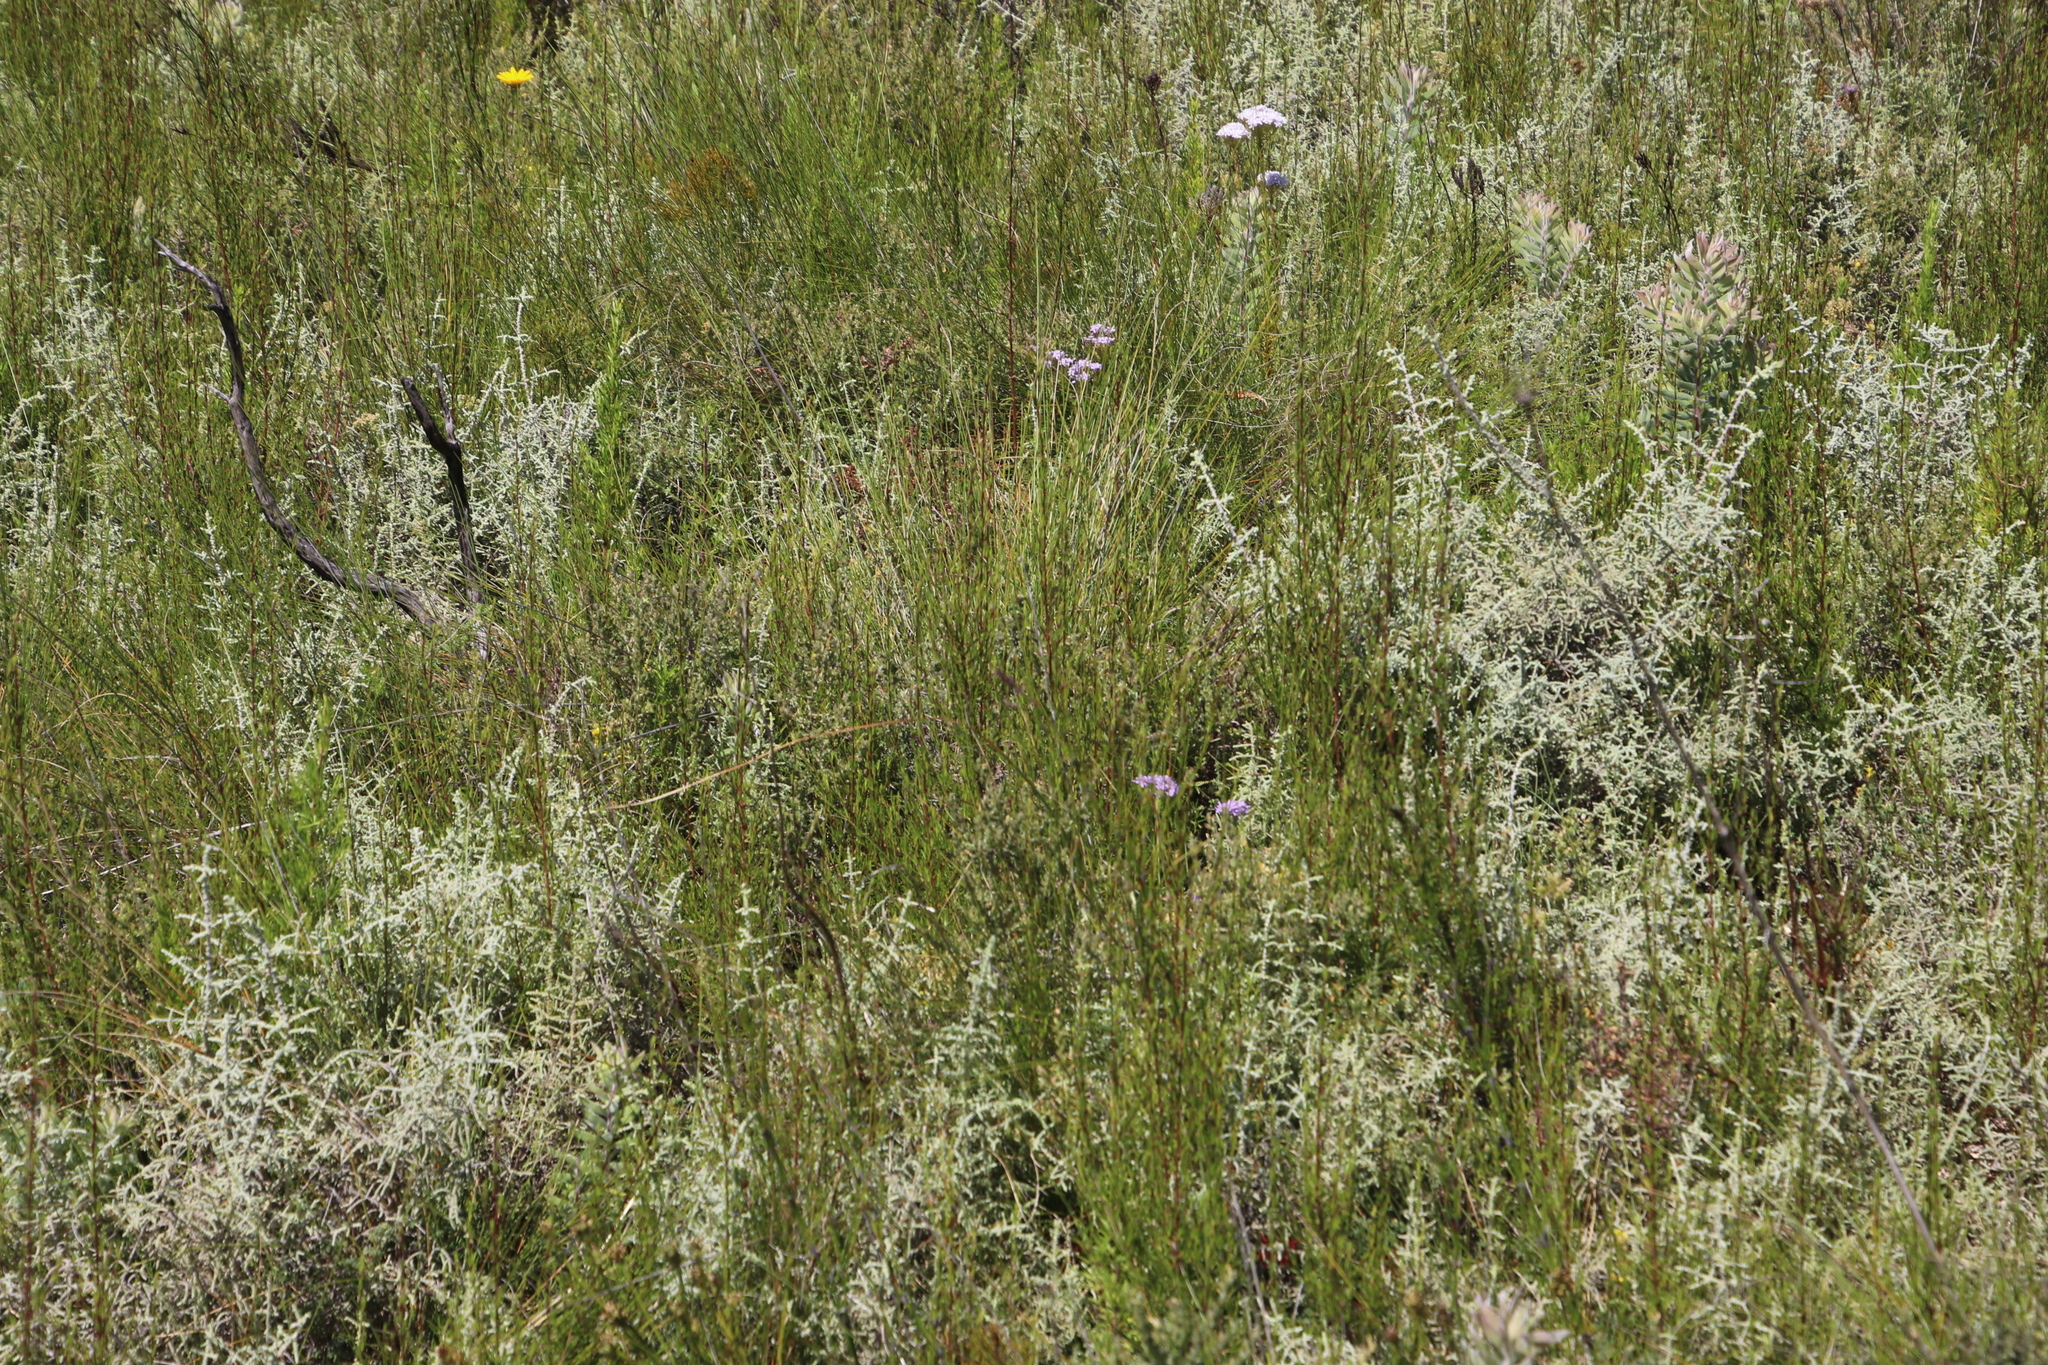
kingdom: Plantae
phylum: Tracheophyta
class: Magnoliopsida
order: Asterales
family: Asteraceae
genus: Seriphium
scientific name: Seriphium plumosum
